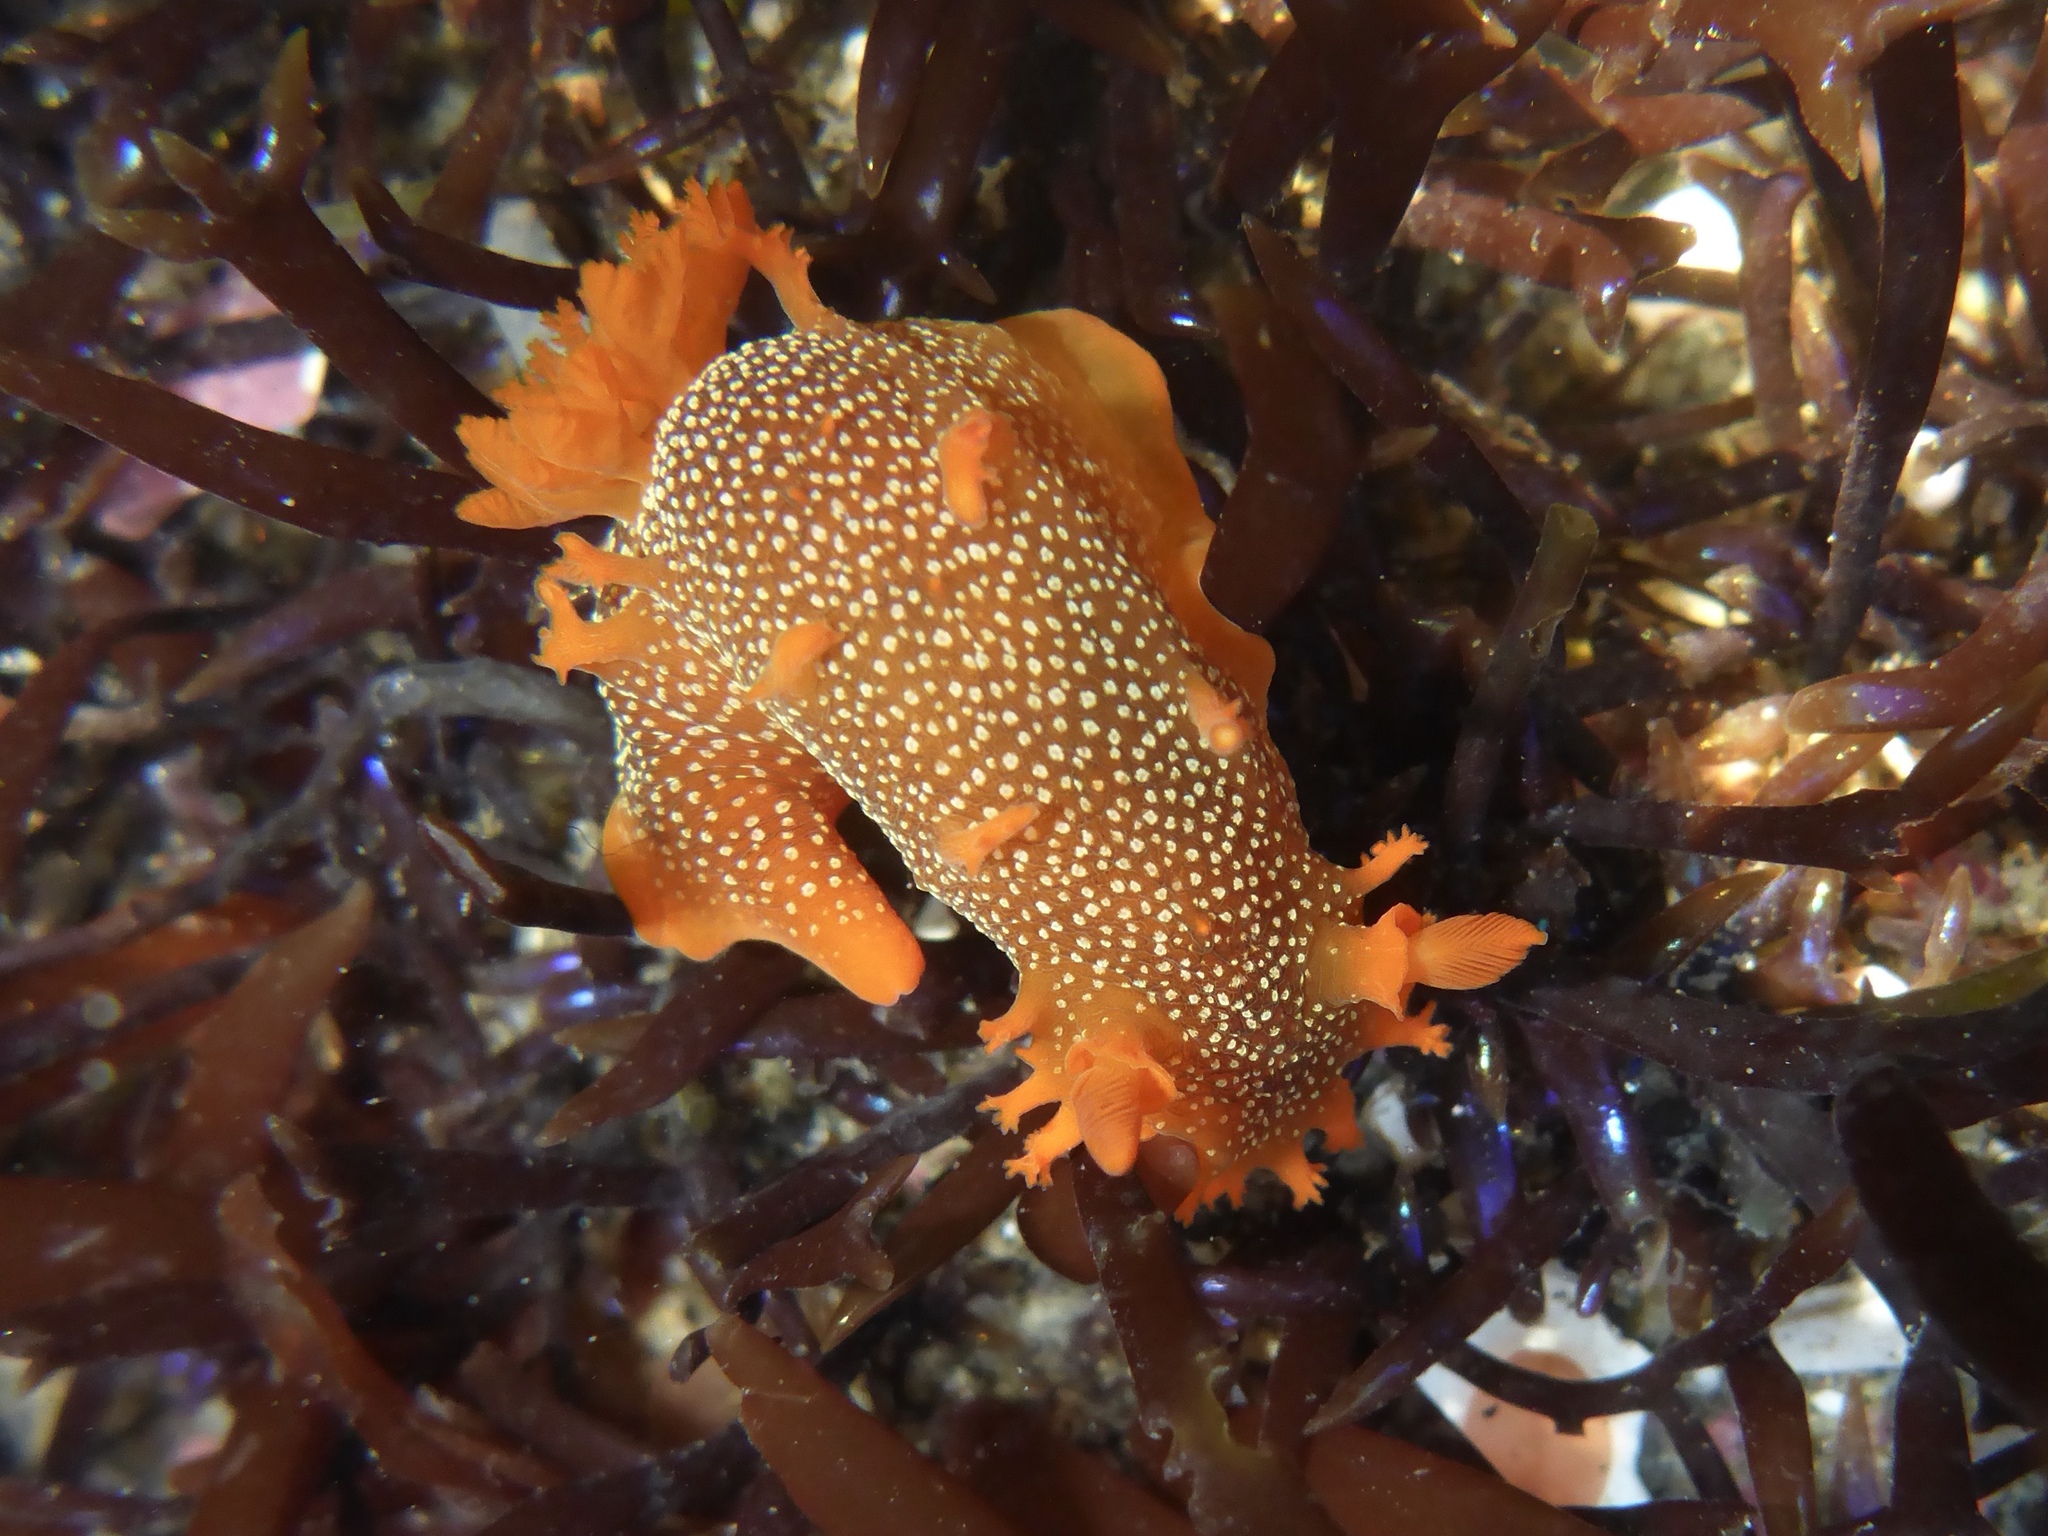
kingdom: Animalia
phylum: Mollusca
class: Gastropoda
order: Nudibranchia
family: Polyceridae
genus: Triopha
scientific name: Triopha maculata
